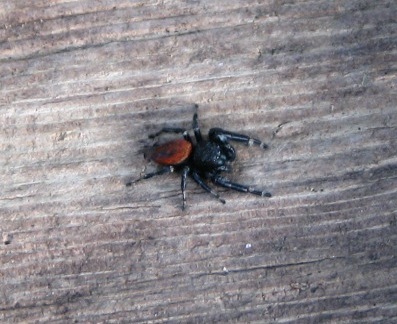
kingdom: Animalia
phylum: Arthropoda
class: Arachnida
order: Araneae
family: Salticidae
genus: Phidippus
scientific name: Phidippus johnsoni
